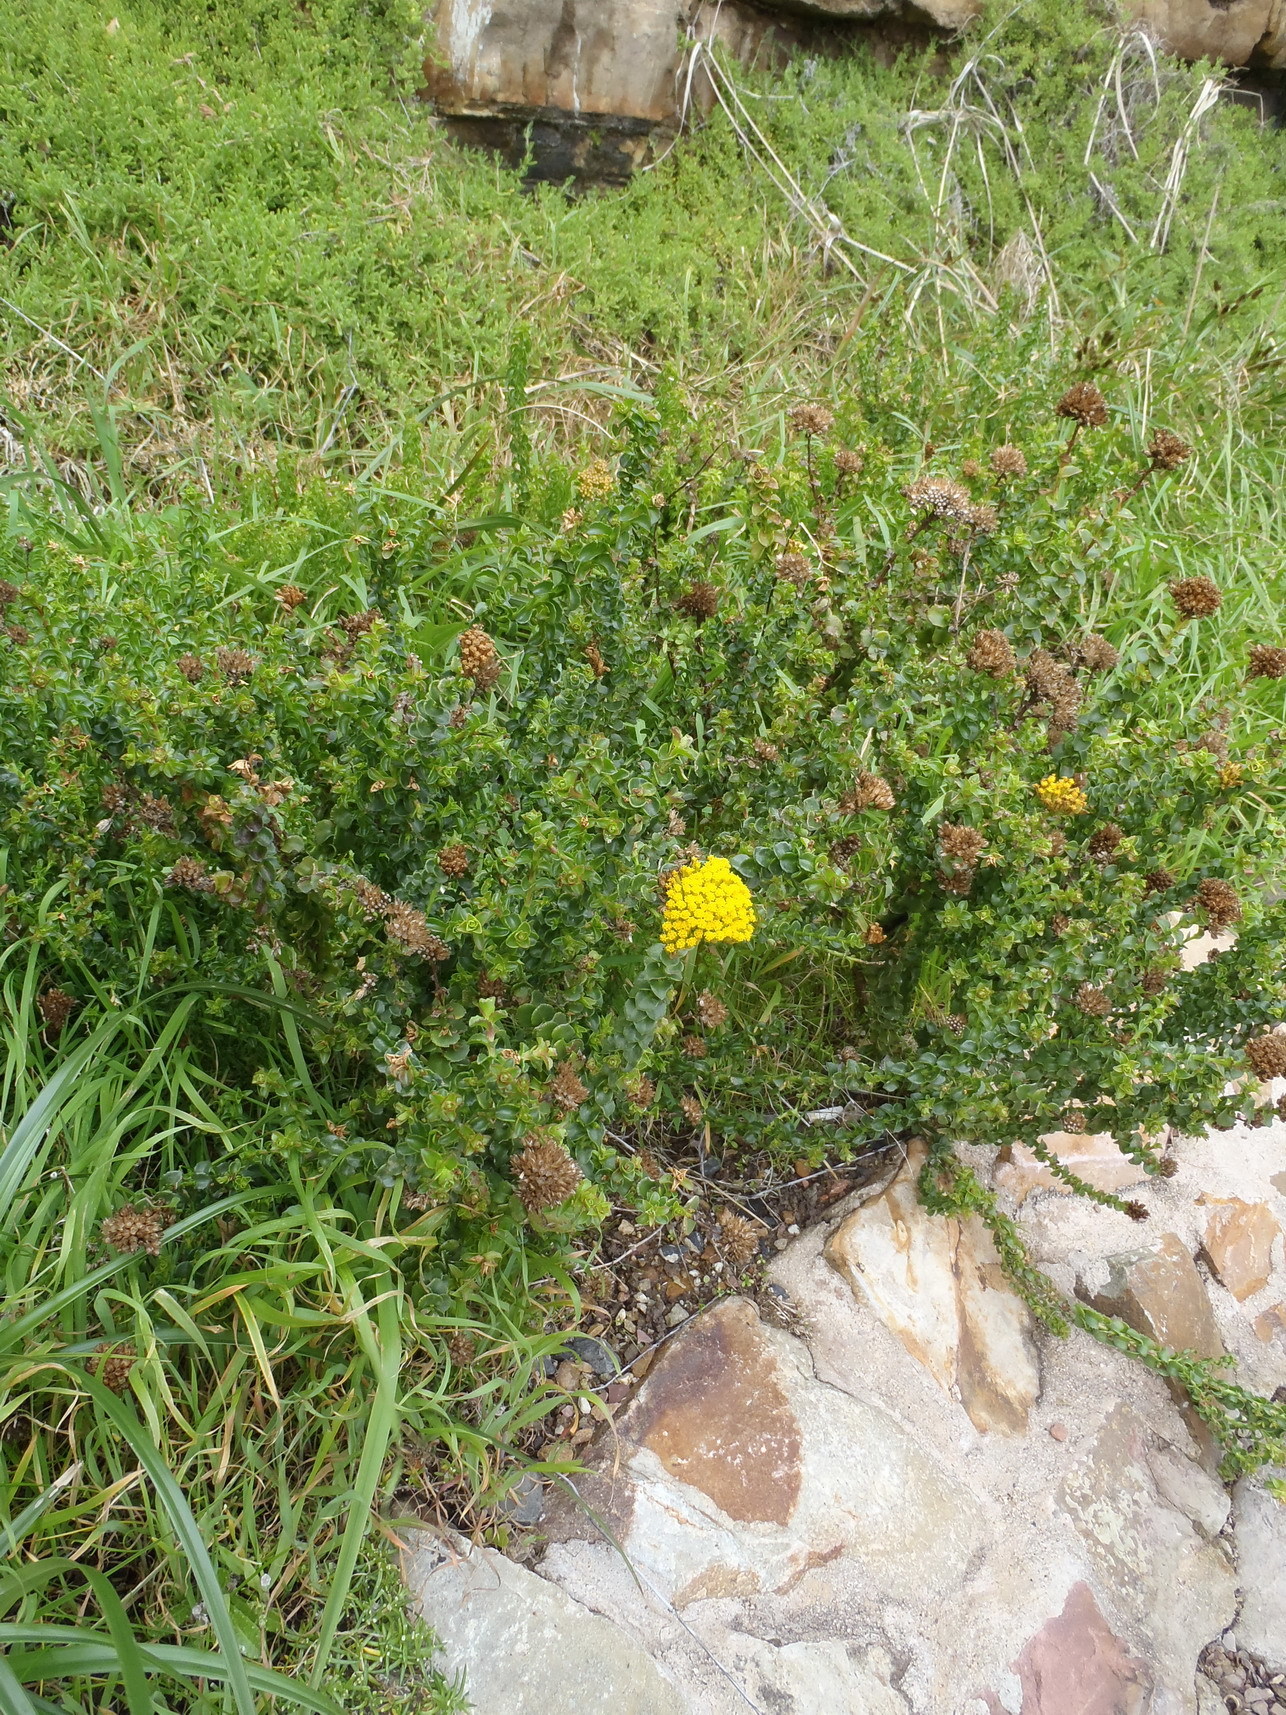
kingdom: Plantae
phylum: Tracheophyta
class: Magnoliopsida
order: Asterales
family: Asteraceae
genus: Athanasia
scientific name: Athanasia dentata
